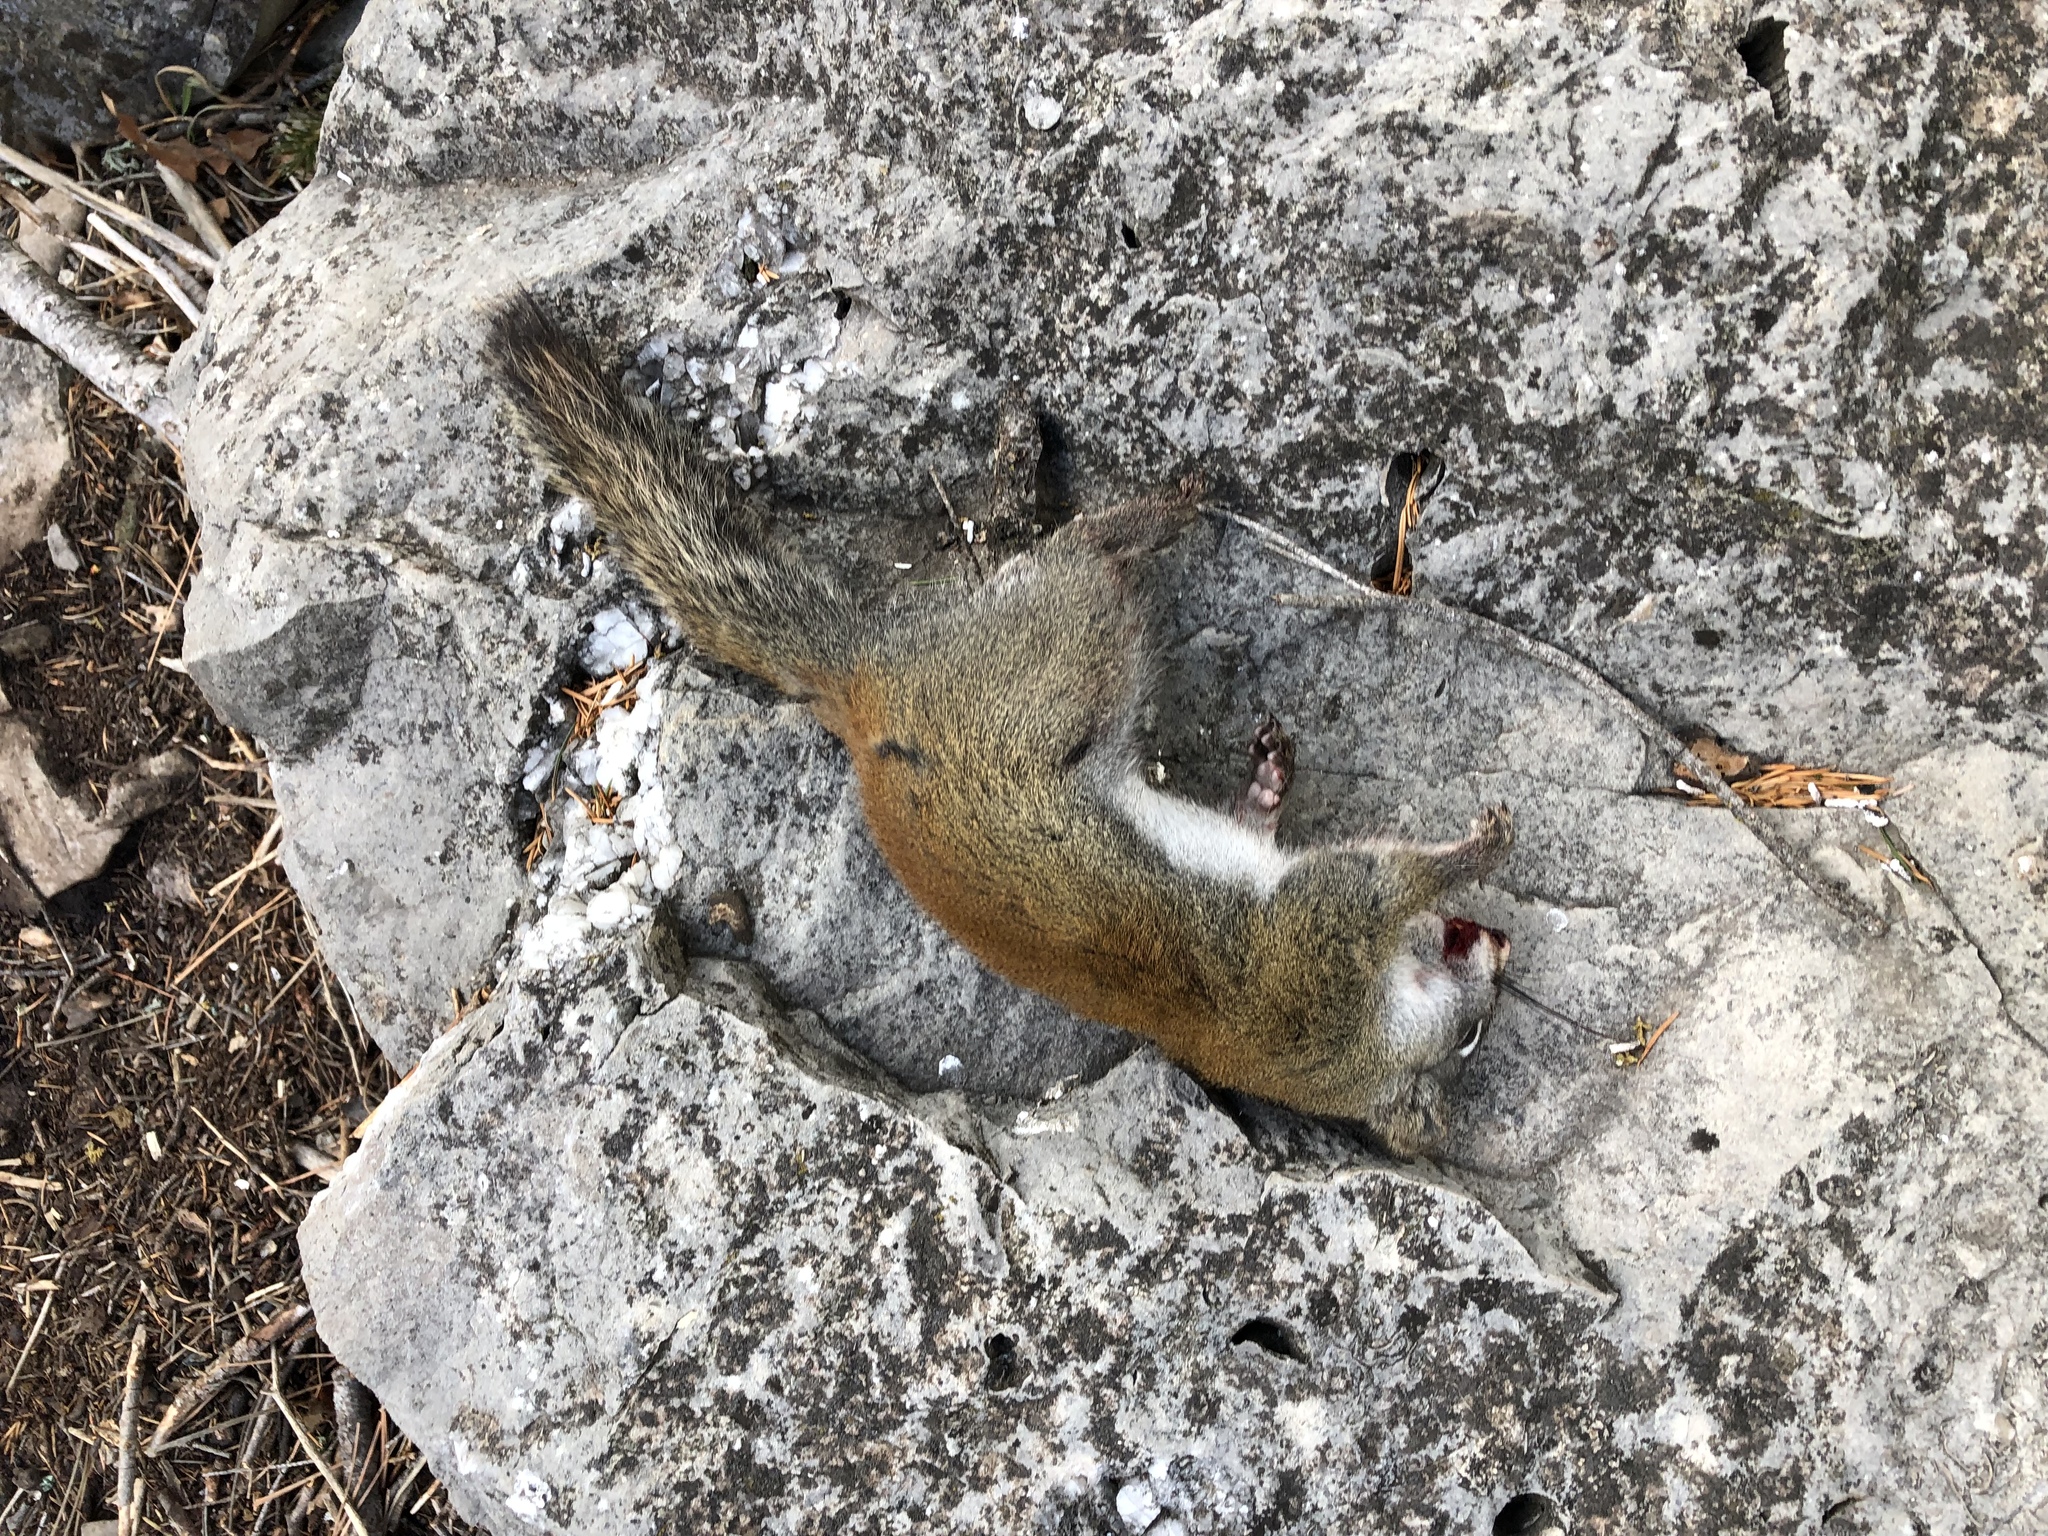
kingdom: Animalia
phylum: Chordata
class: Mammalia
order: Rodentia
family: Sciuridae
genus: Tamiasciurus
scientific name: Tamiasciurus hudsonicus
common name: Red squirrel
